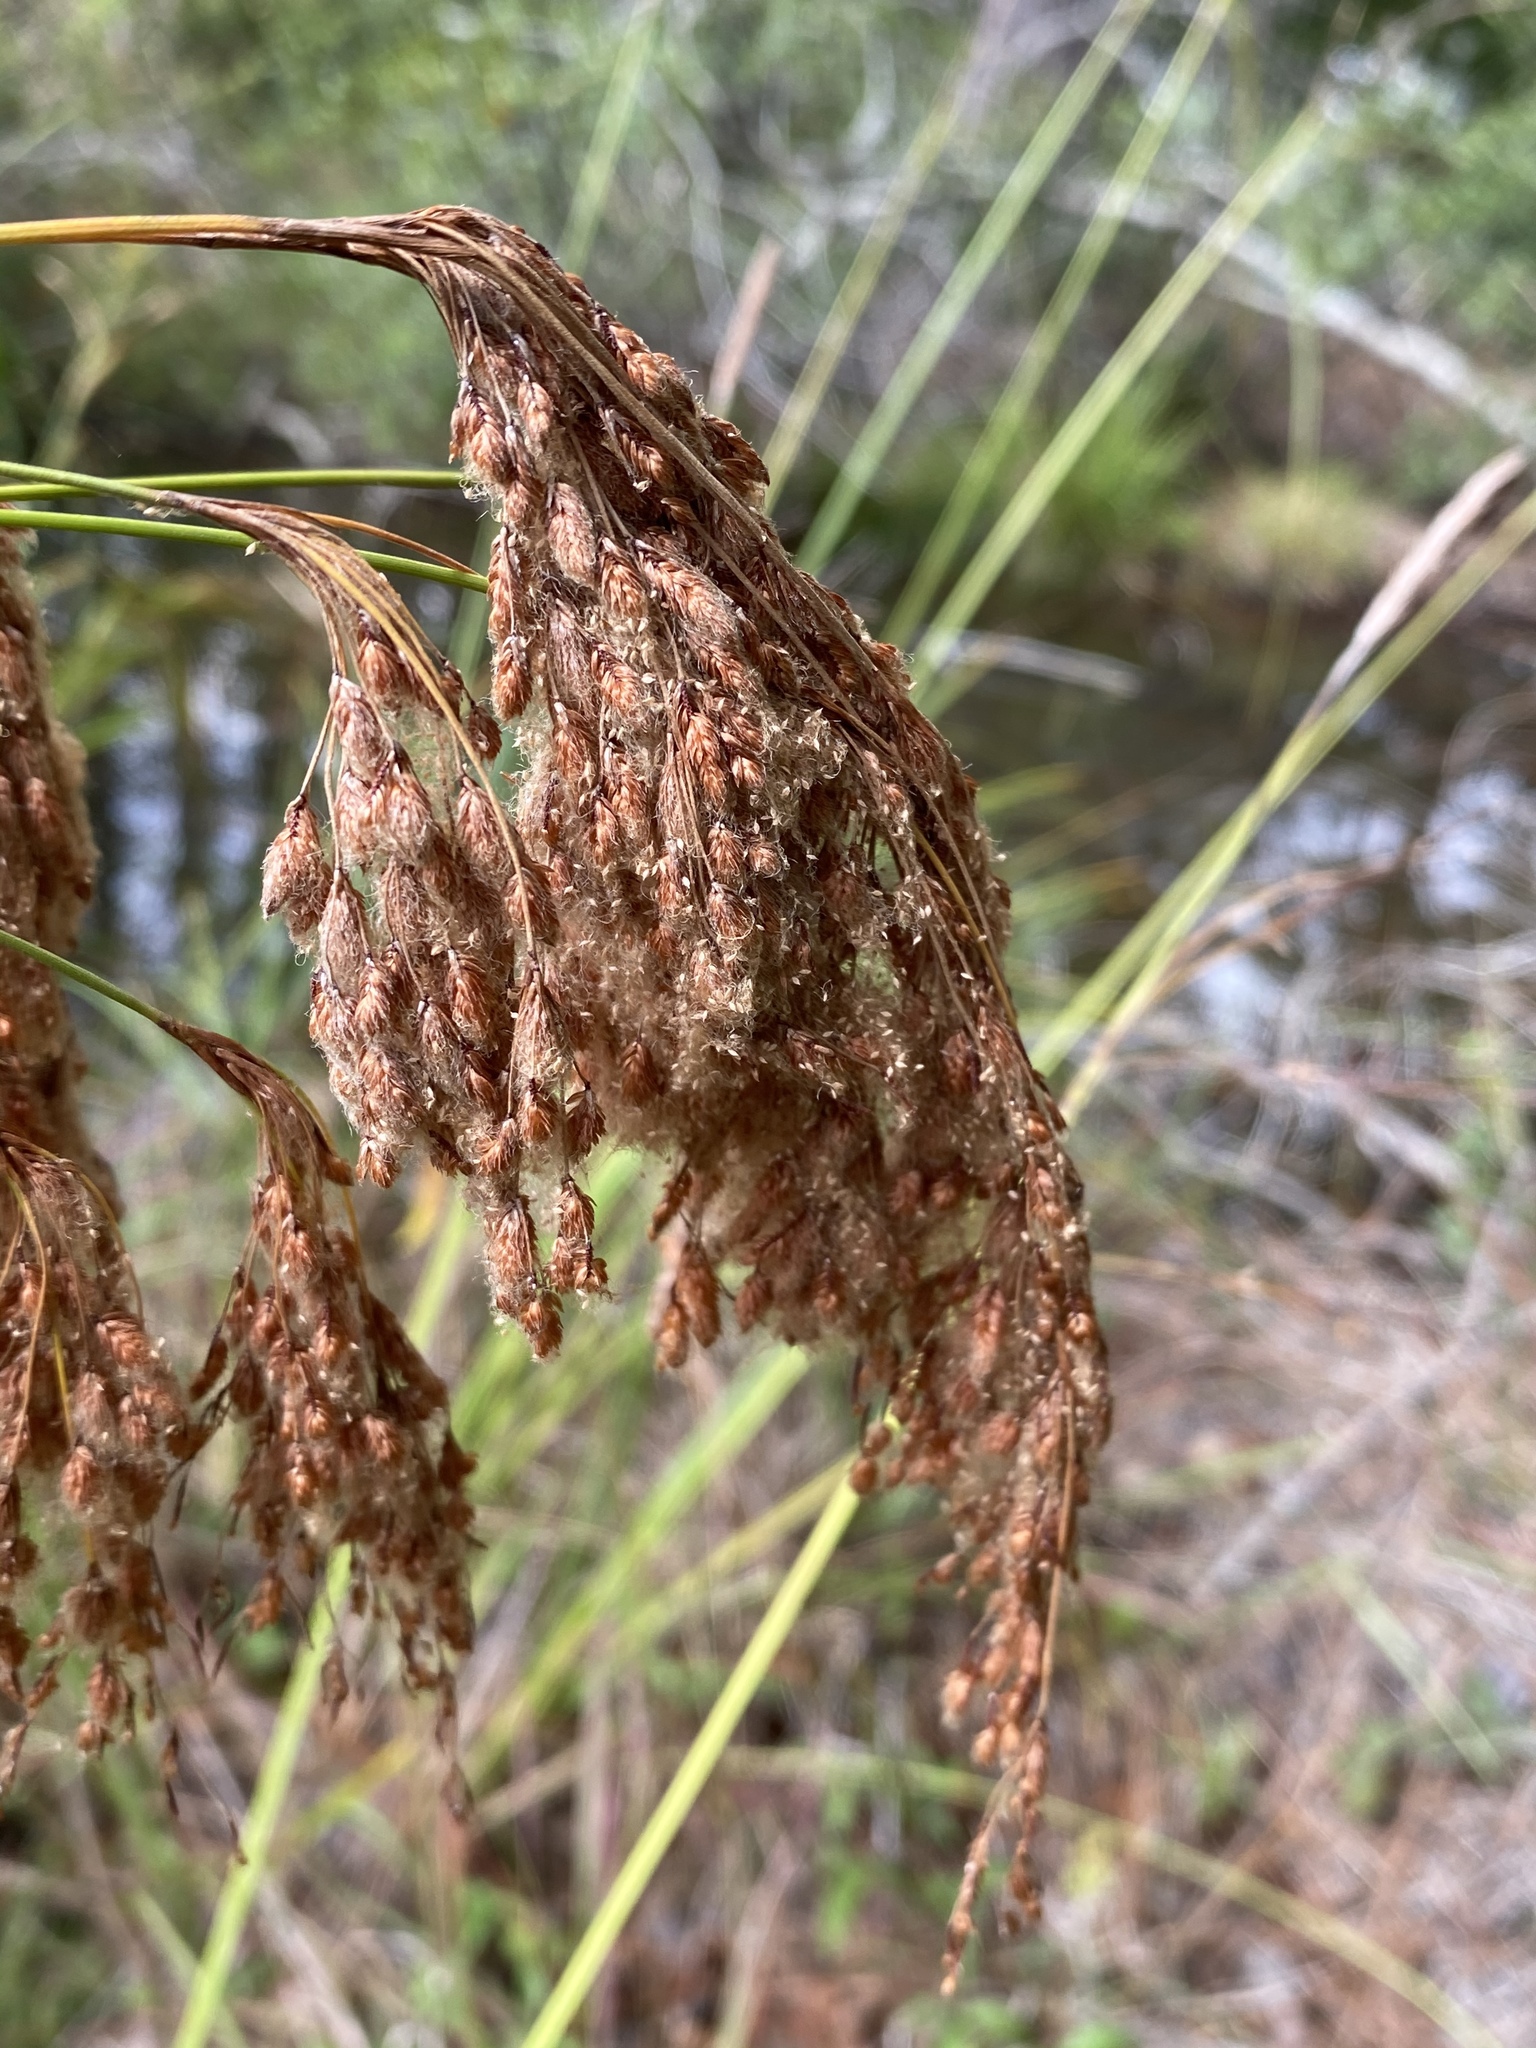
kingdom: Plantae
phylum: Tracheophyta
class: Liliopsida
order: Poales
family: Cyperaceae
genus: Scirpus
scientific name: Scirpus cyperinus
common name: Black-sheathed bulrush
